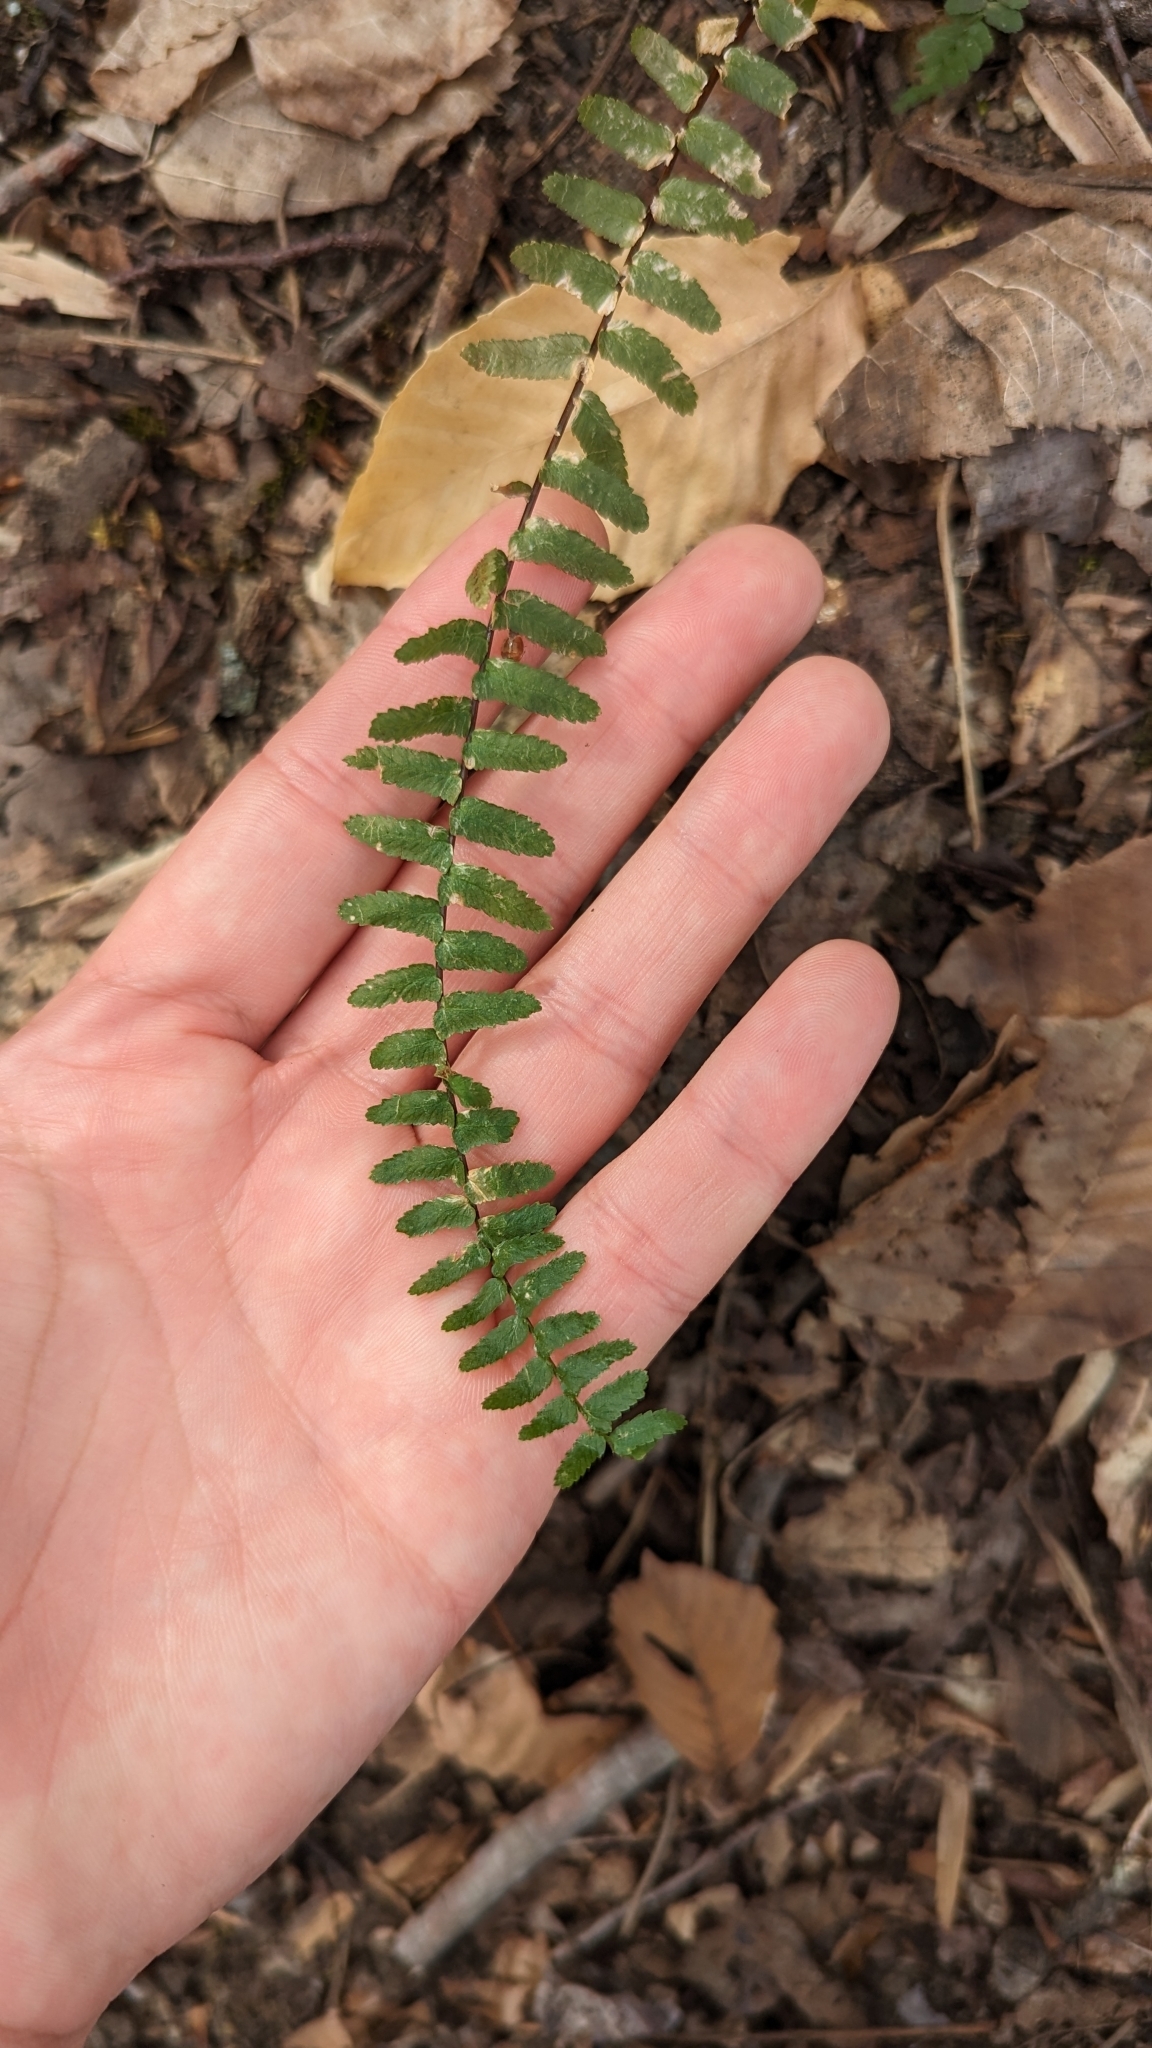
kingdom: Plantae
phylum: Tracheophyta
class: Polypodiopsida
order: Polypodiales
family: Aspleniaceae
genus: Asplenium
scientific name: Asplenium platyneuron
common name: Ebony spleenwort
